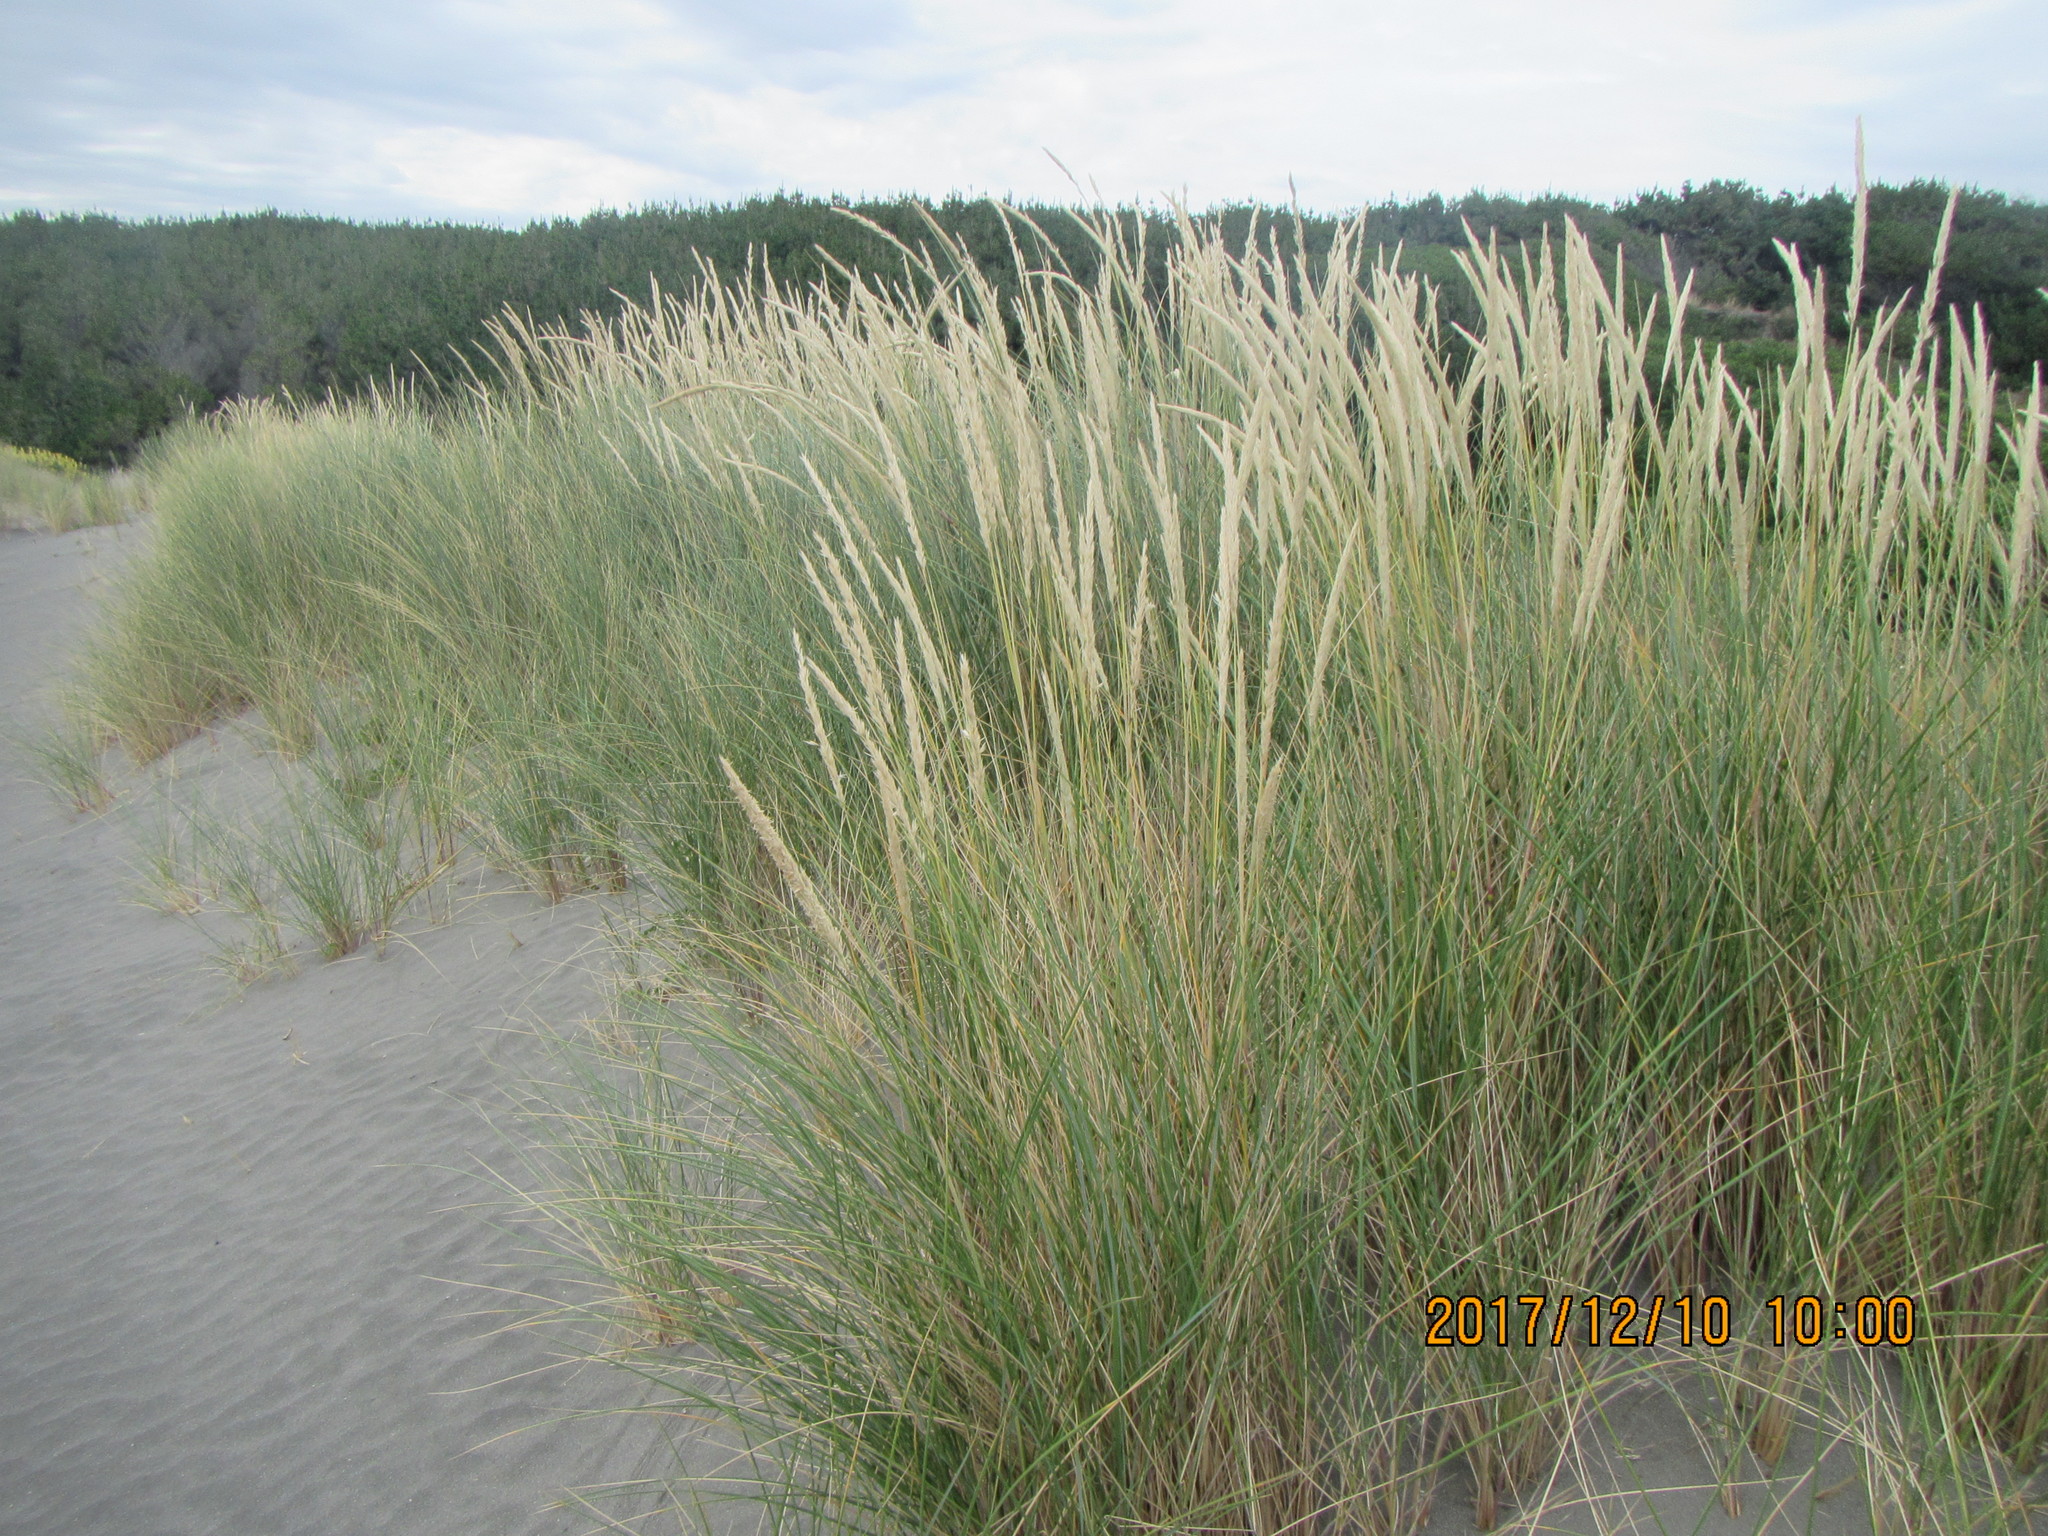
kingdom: Plantae
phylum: Tracheophyta
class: Liliopsida
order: Poales
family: Poaceae
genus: Calamagrostis
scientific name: Calamagrostis arenaria
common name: European beachgrass
